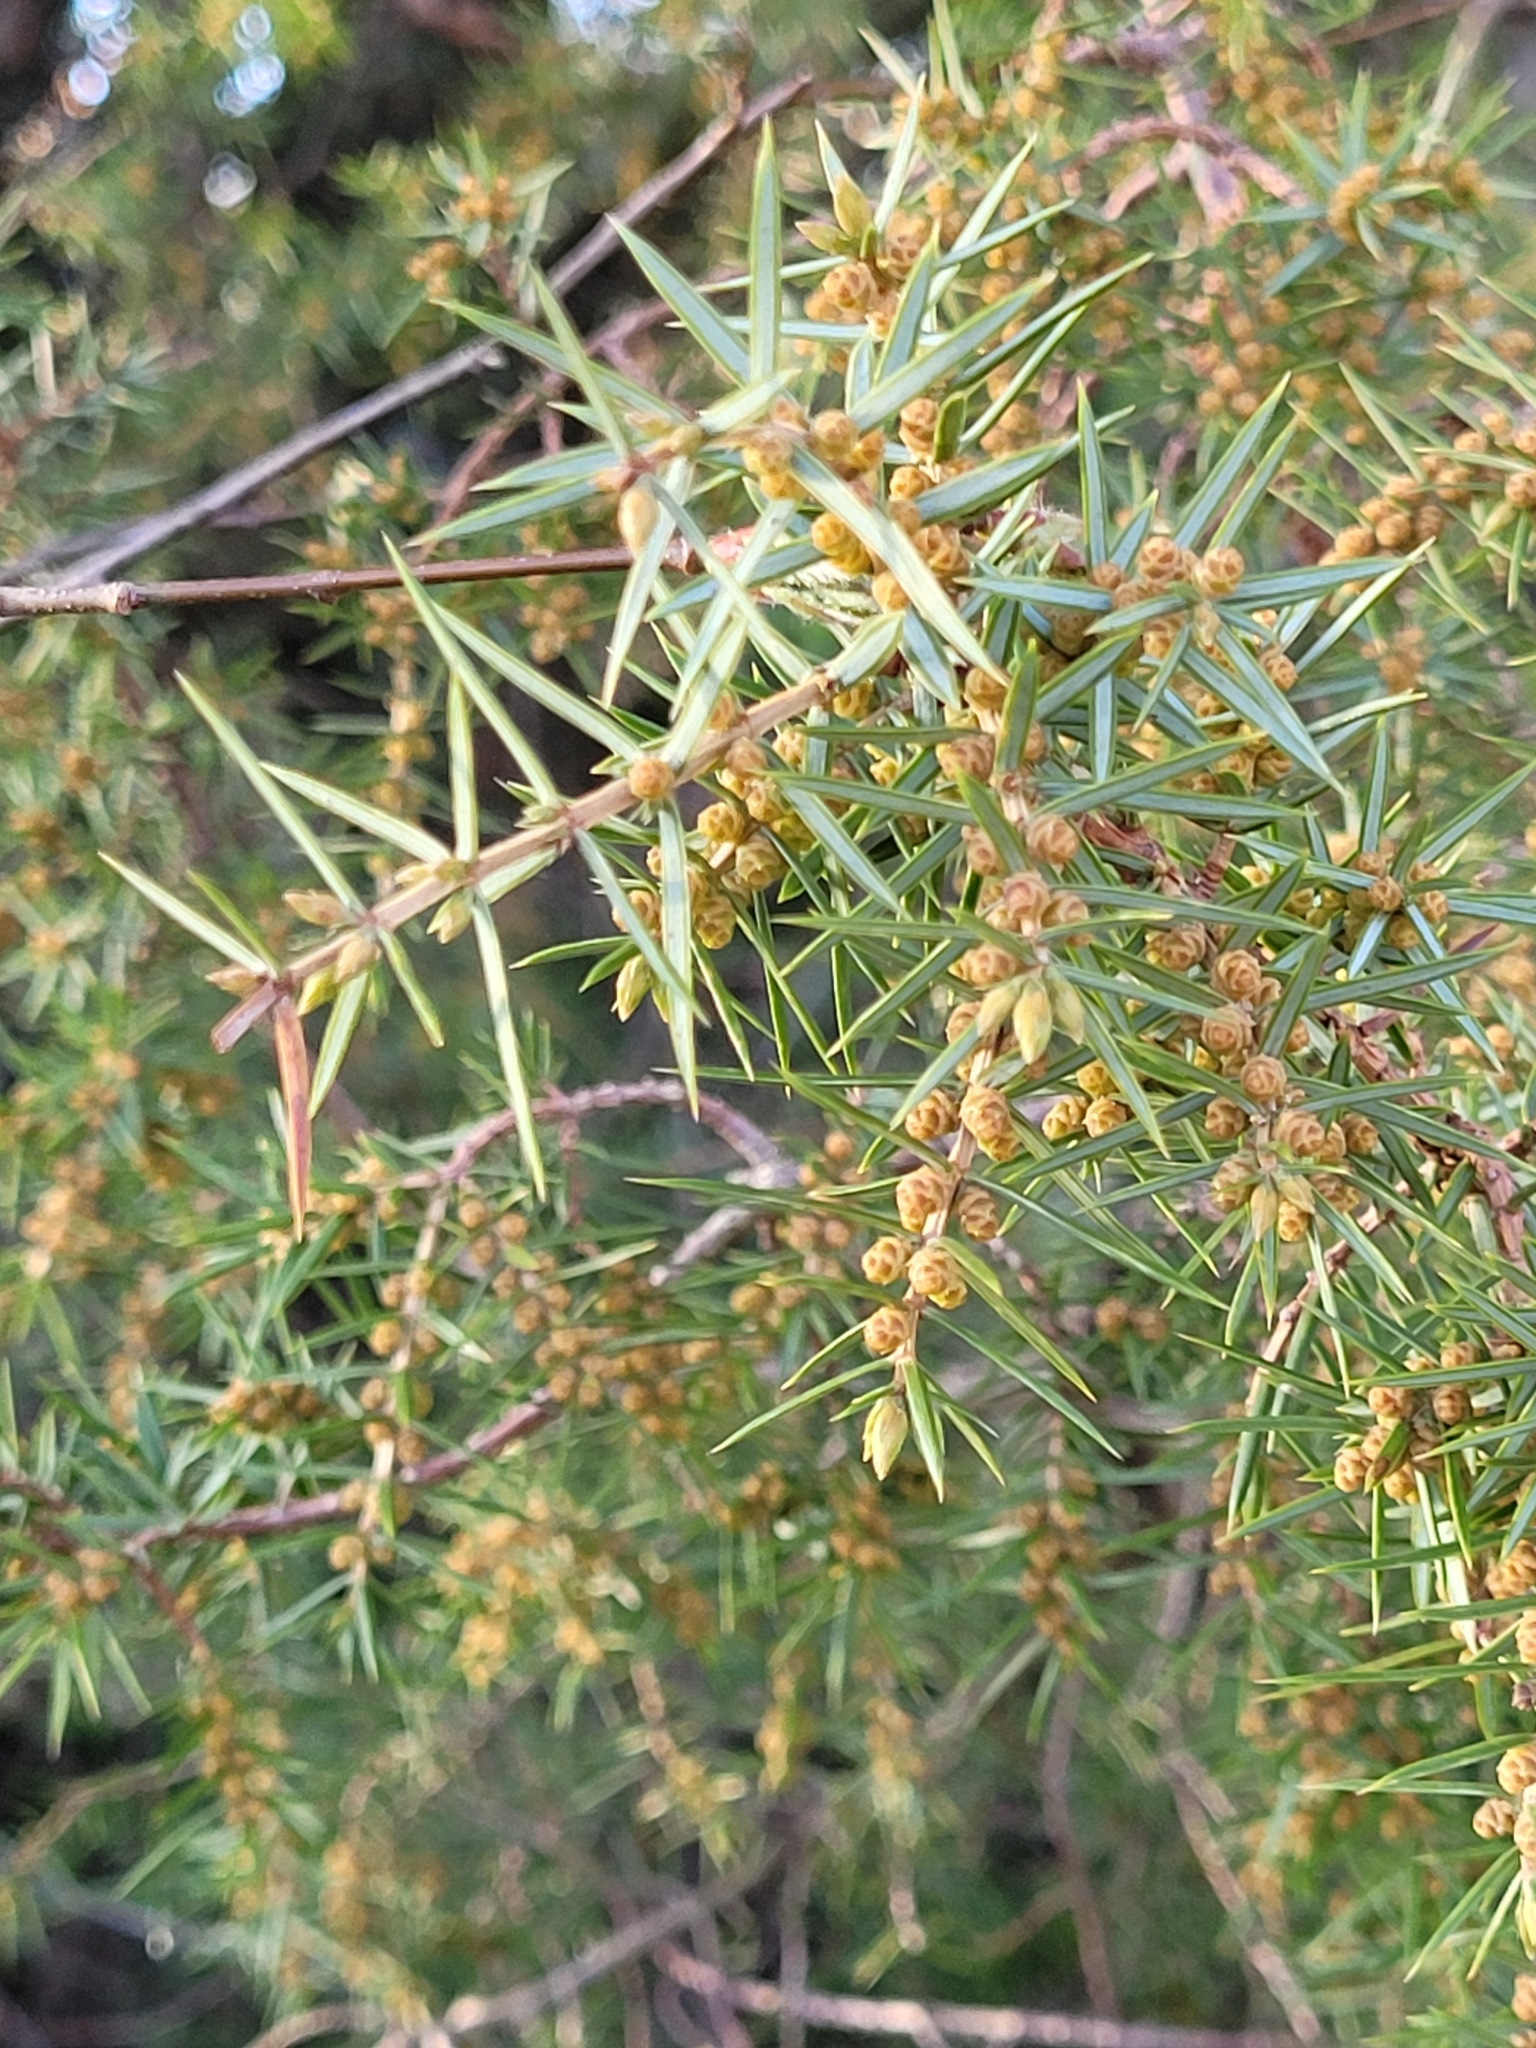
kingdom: Plantae
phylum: Tracheophyta
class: Pinopsida
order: Pinales
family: Cupressaceae
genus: Juniperus
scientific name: Juniperus communis
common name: Common juniper
